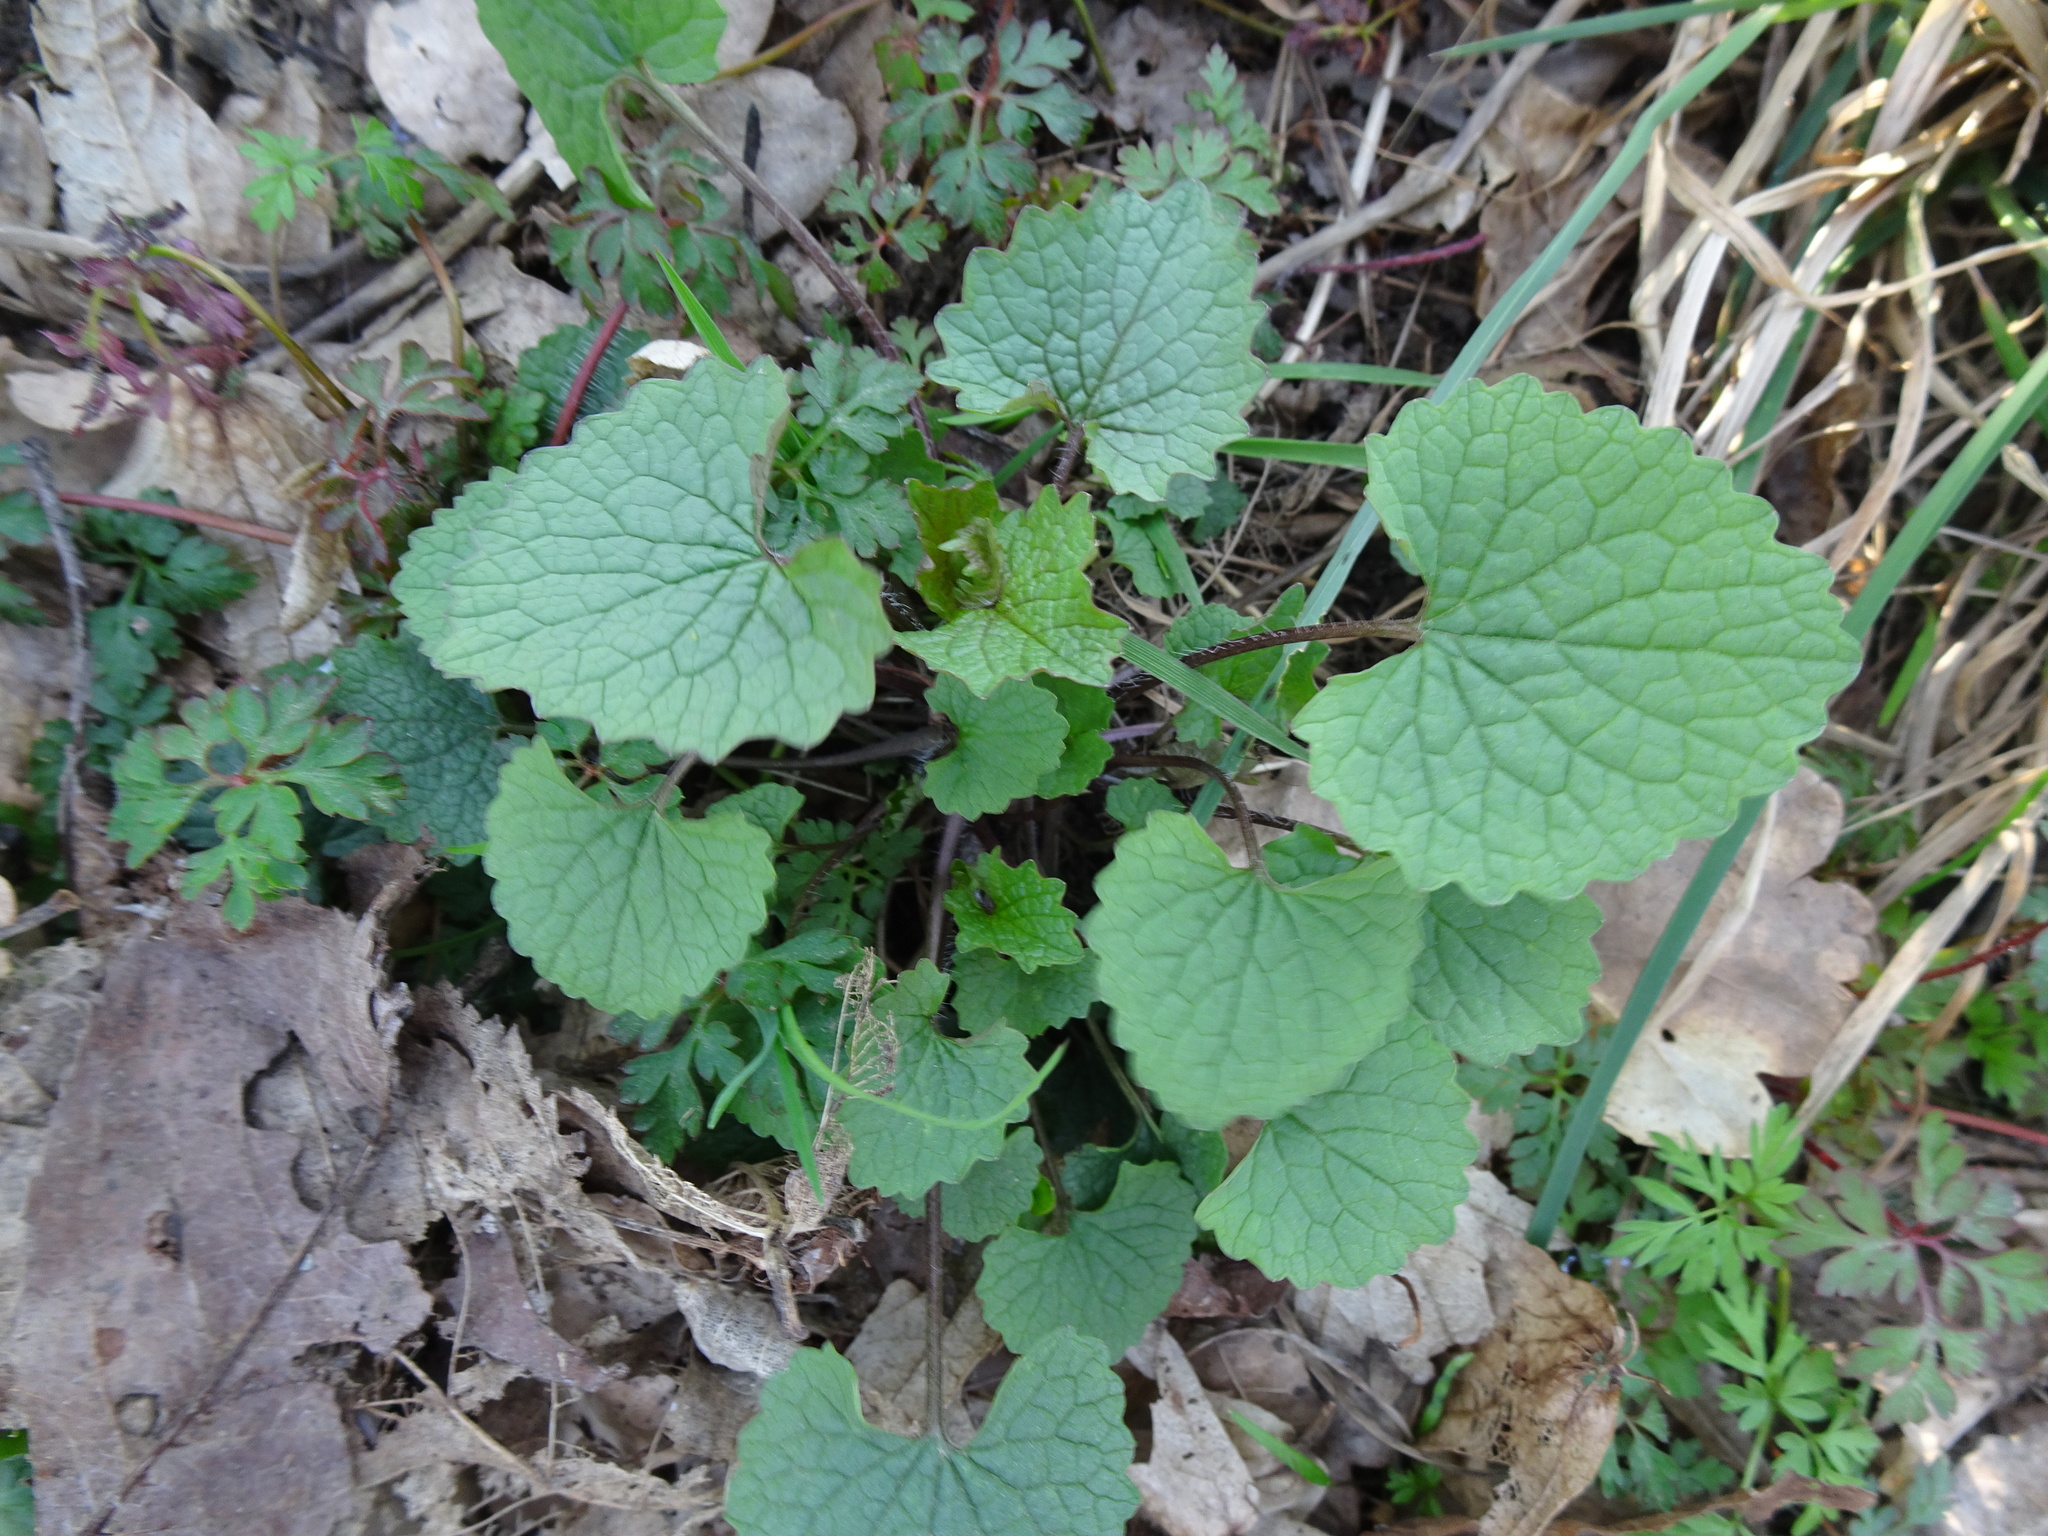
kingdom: Plantae
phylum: Tracheophyta
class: Magnoliopsida
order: Brassicales
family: Brassicaceae
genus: Alliaria
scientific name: Alliaria petiolata
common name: Garlic mustard
